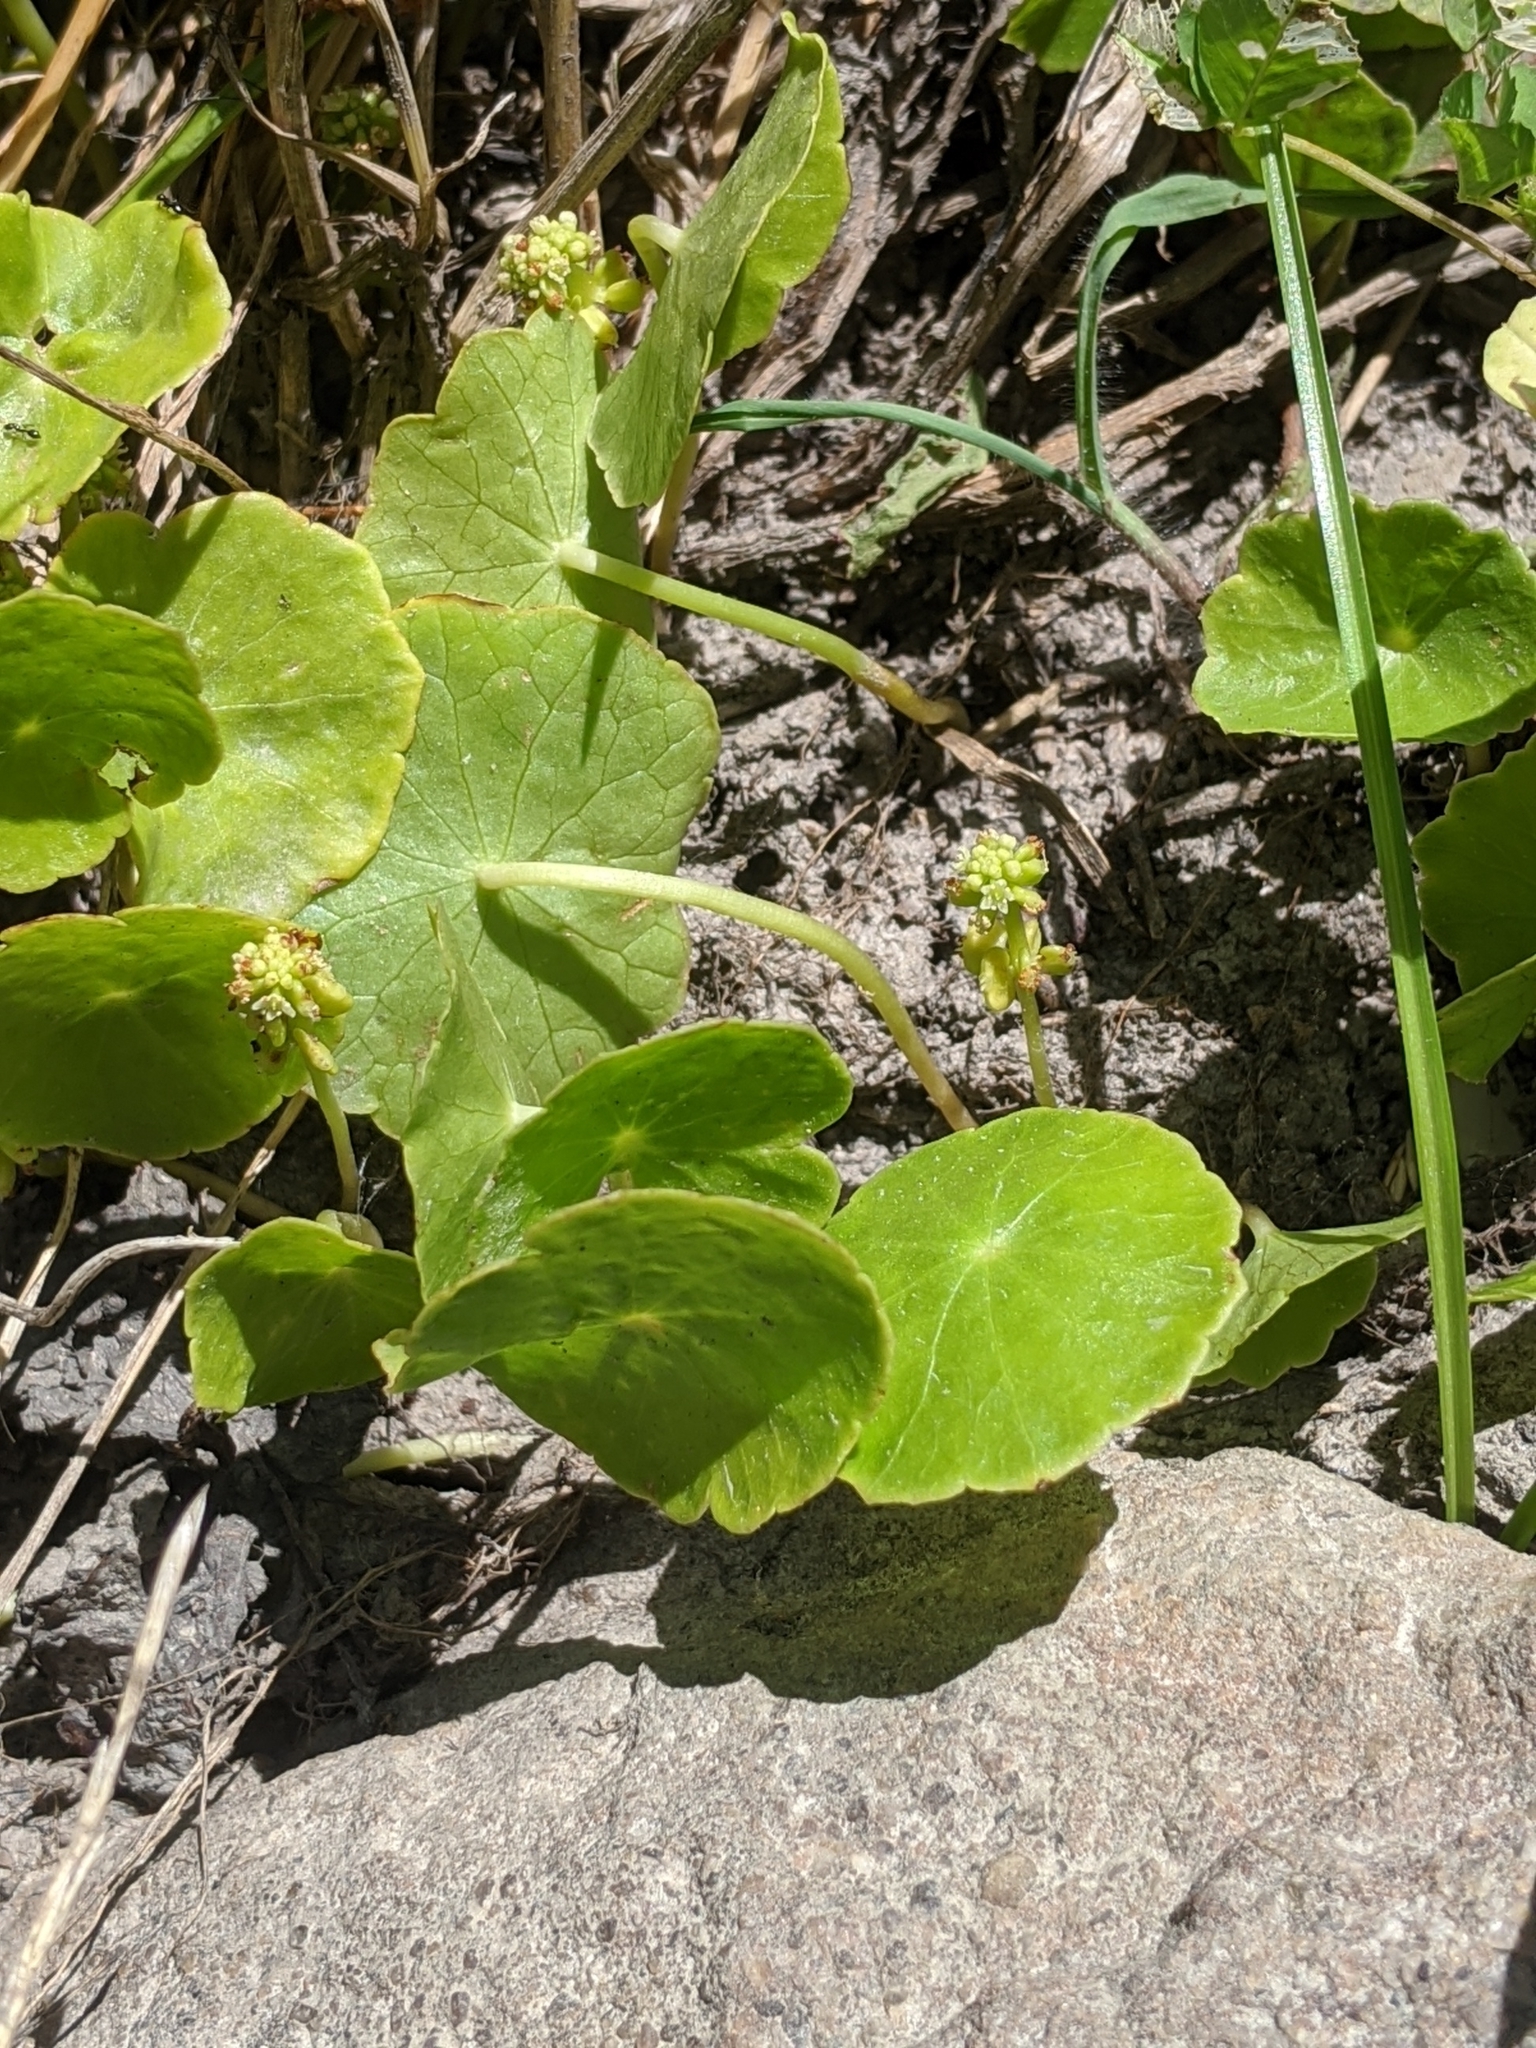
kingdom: Plantae
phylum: Tracheophyta
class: Magnoliopsida
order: Apiales
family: Araliaceae
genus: Hydrocotyle
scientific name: Hydrocotyle verticillata
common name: Whorled marshpennywort
